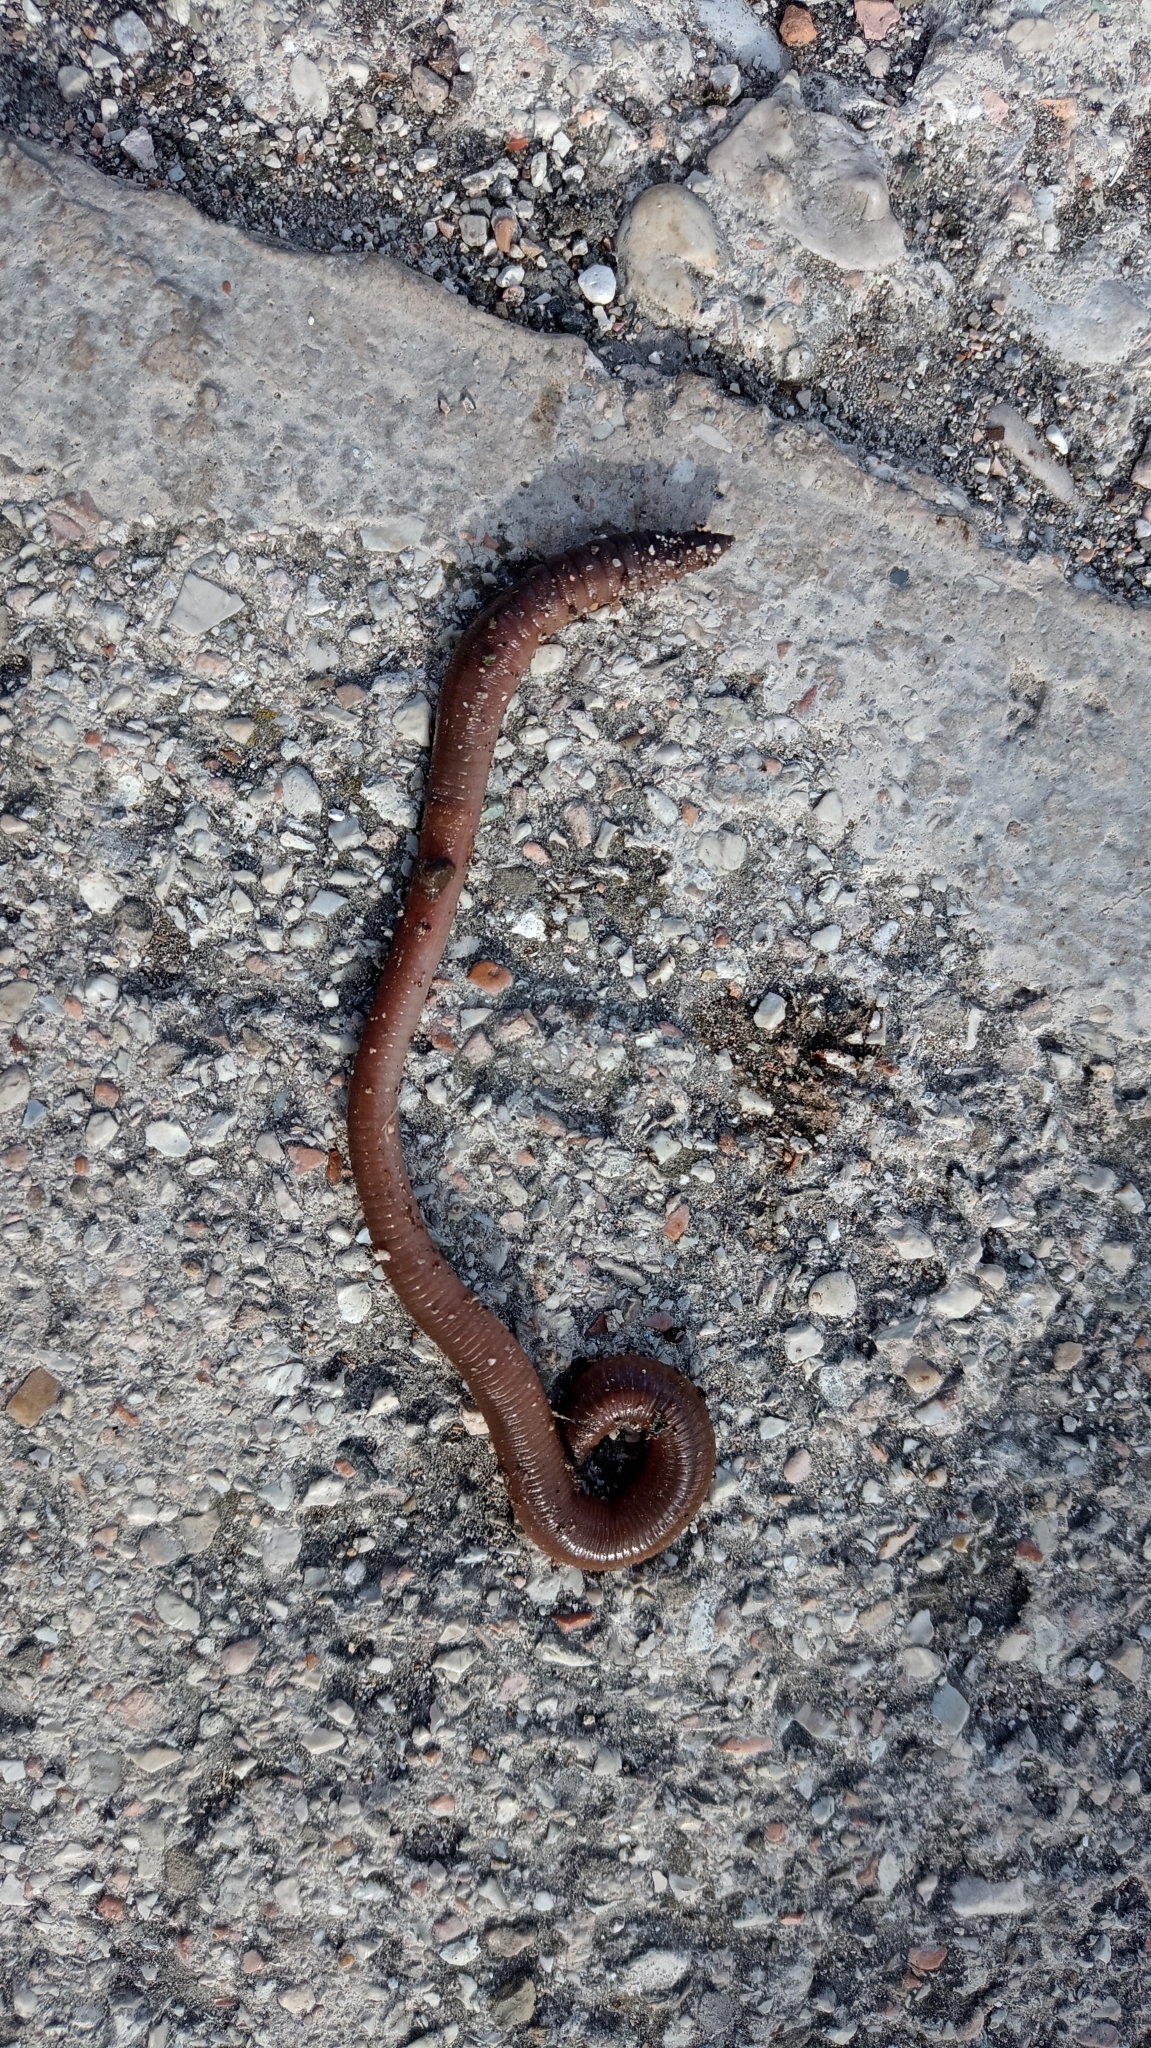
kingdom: Animalia
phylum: Annelida
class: Clitellata
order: Crassiclitellata
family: Lumbricidae
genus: Lumbricus
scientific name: Lumbricus terrestris
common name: Common earthworm
